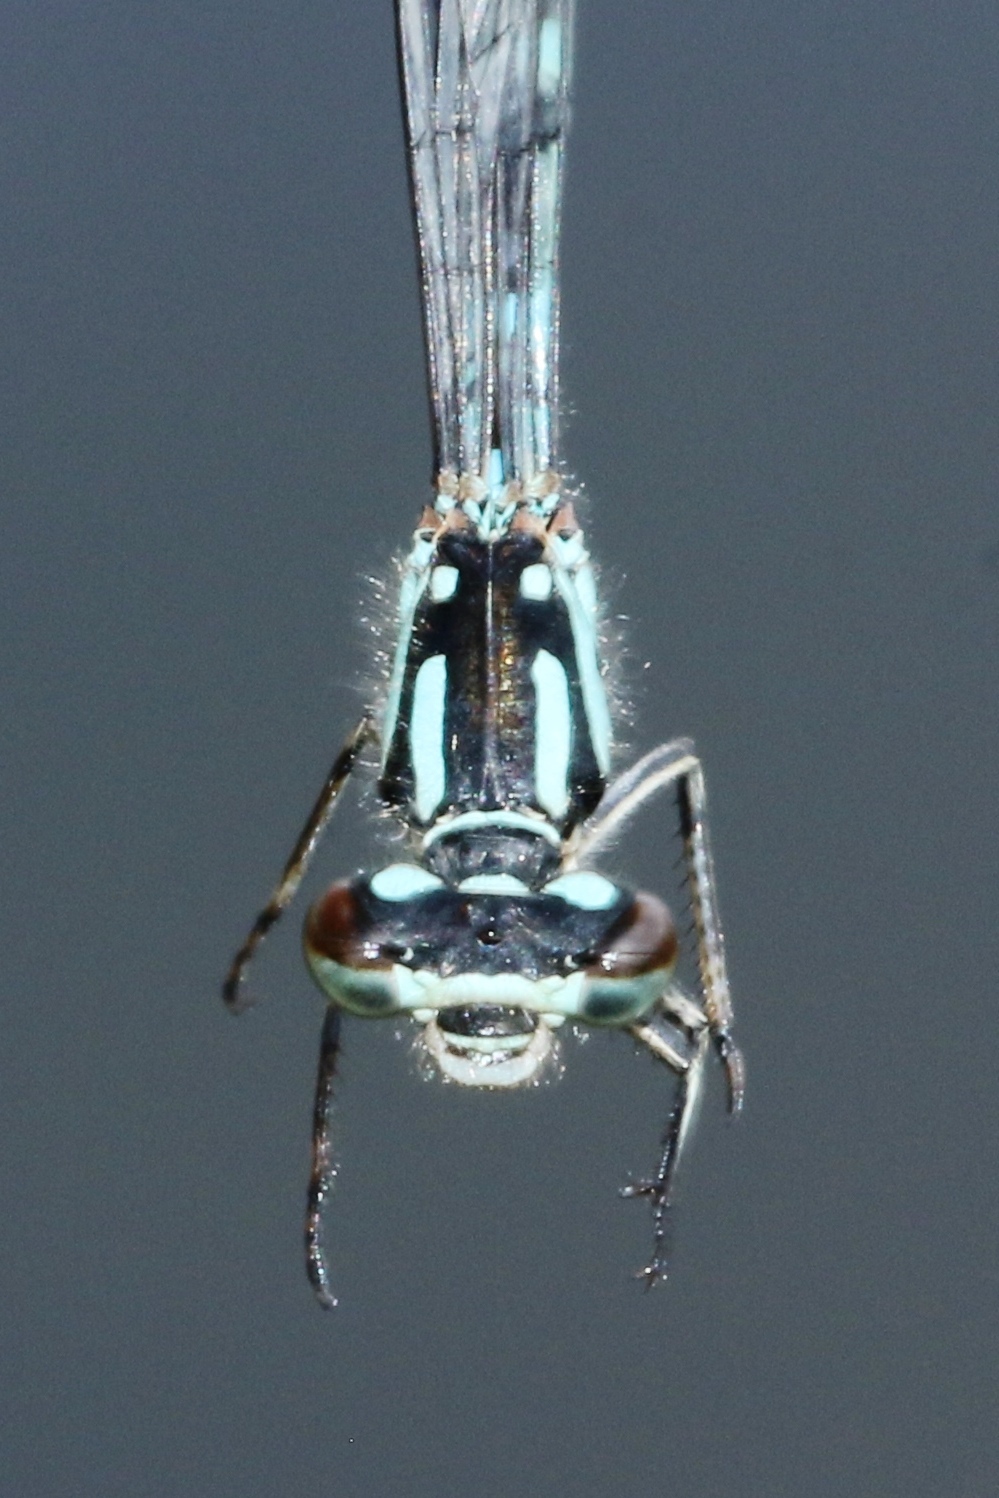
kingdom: Animalia
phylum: Arthropoda
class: Insecta
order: Odonata
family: Coenagrionidae
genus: Coenagrion
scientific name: Coenagrion interrogatum
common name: Subarctic bluet
